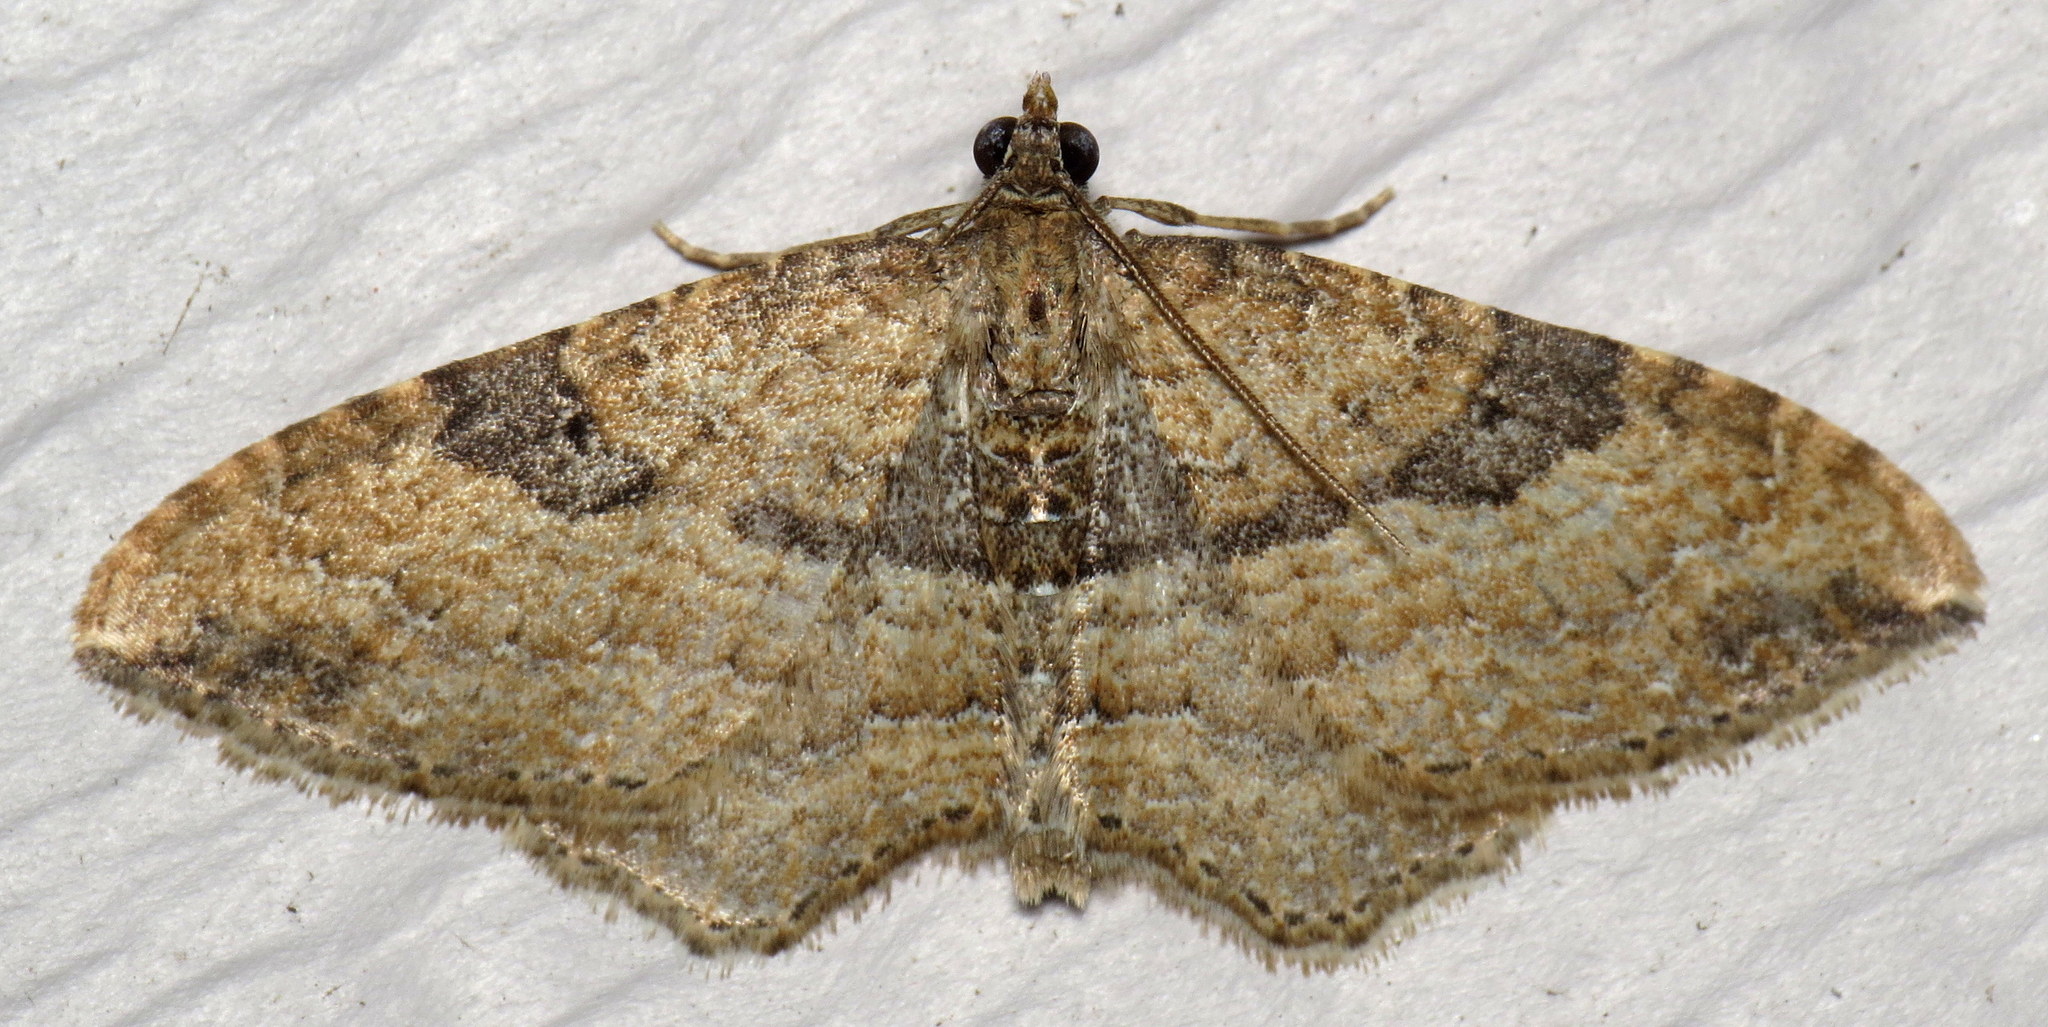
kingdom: Animalia
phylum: Arthropoda
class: Insecta
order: Lepidoptera
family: Geometridae
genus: Orthonama
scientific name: Orthonama obstipata
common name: The gem
